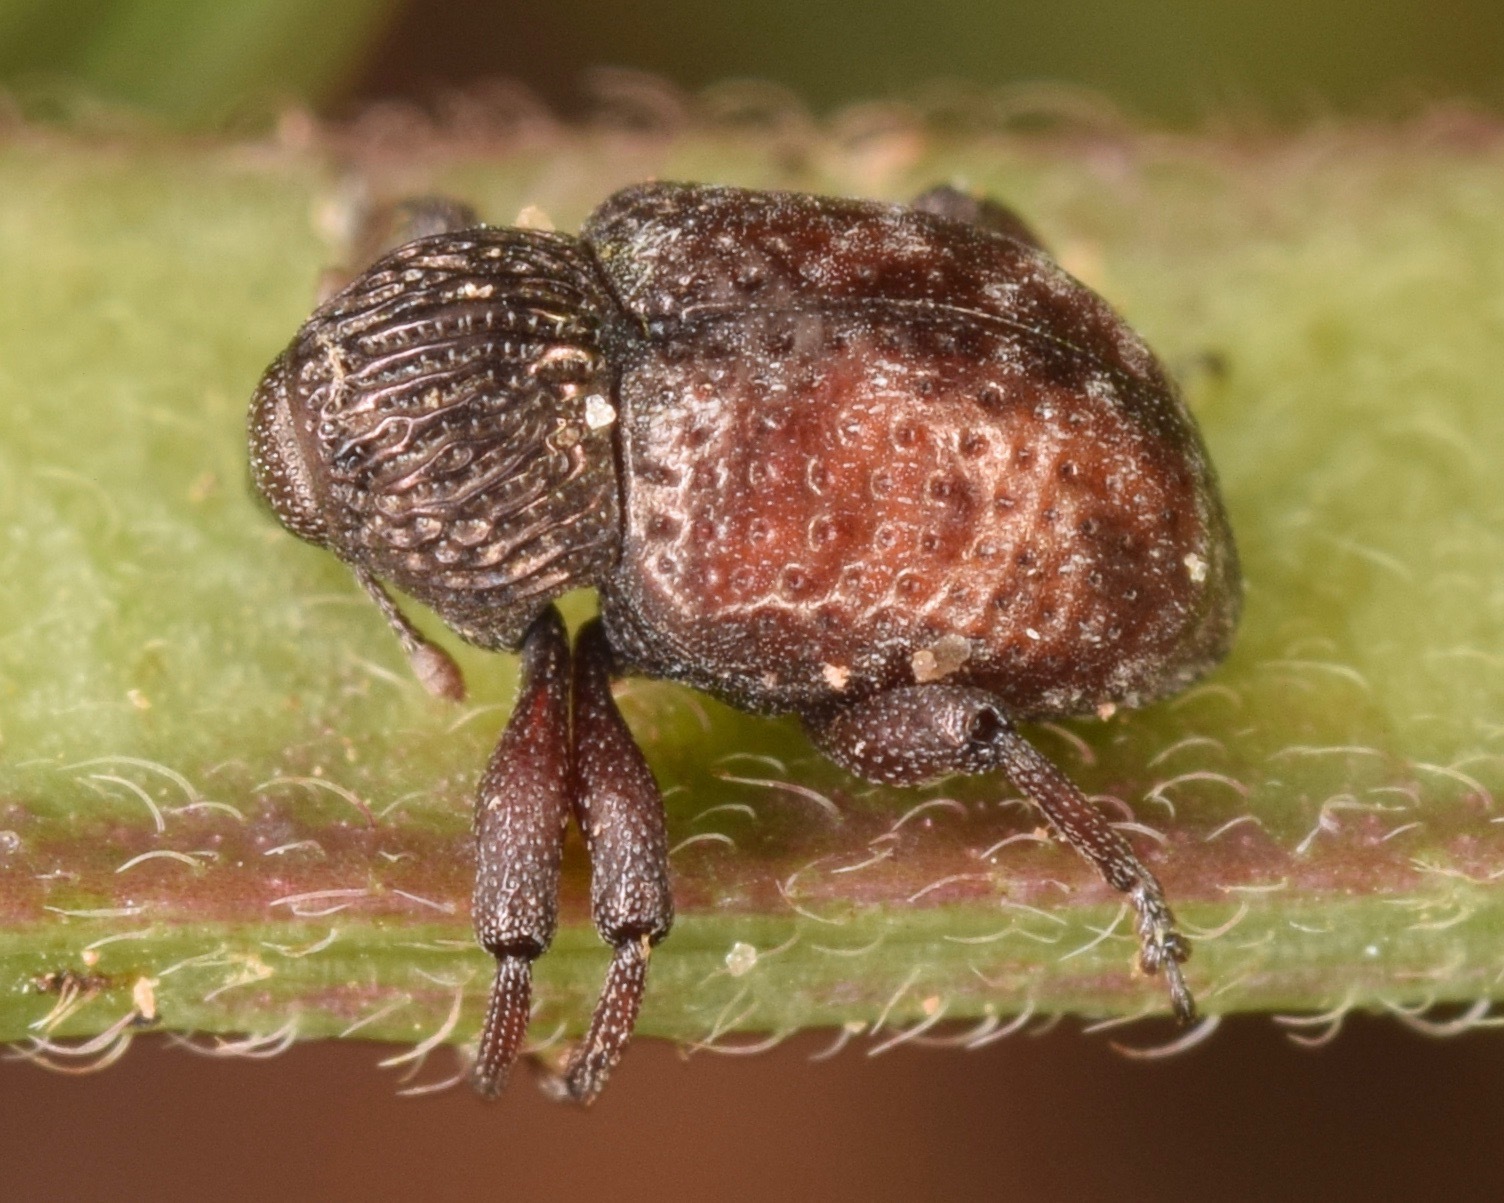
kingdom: Animalia
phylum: Arthropoda
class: Insecta
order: Coleoptera
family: Curculionidae
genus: Chalcodermus
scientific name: Chalcodermus collaris
